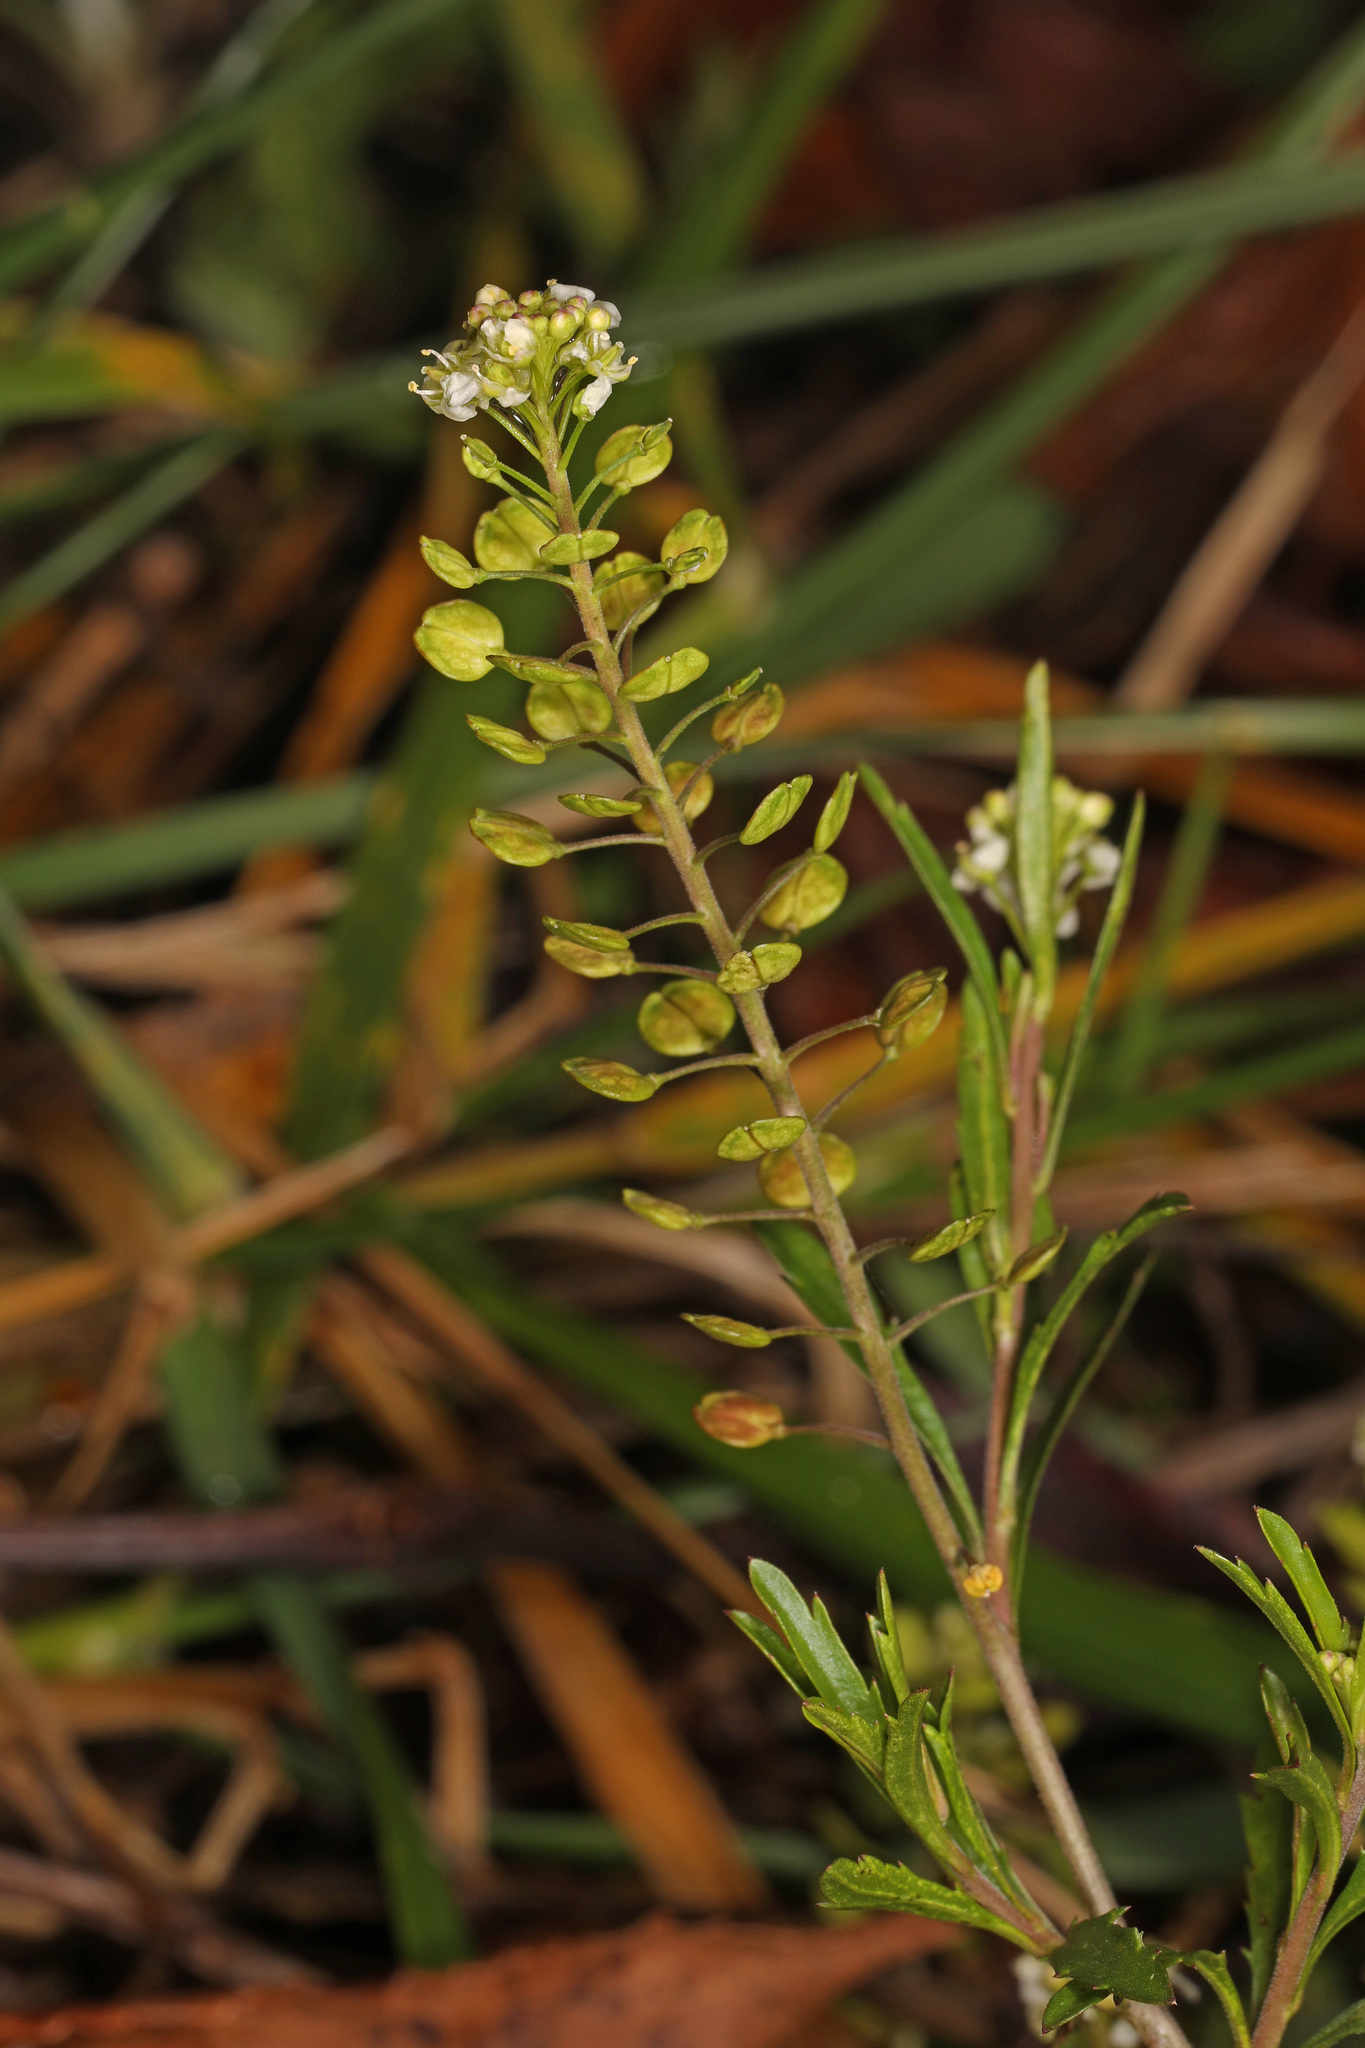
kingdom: Plantae
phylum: Tracheophyta
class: Magnoliopsida
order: Brassicales
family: Brassicaceae
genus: Lepidium
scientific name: Lepidium virginicum
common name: Least pepperwort
